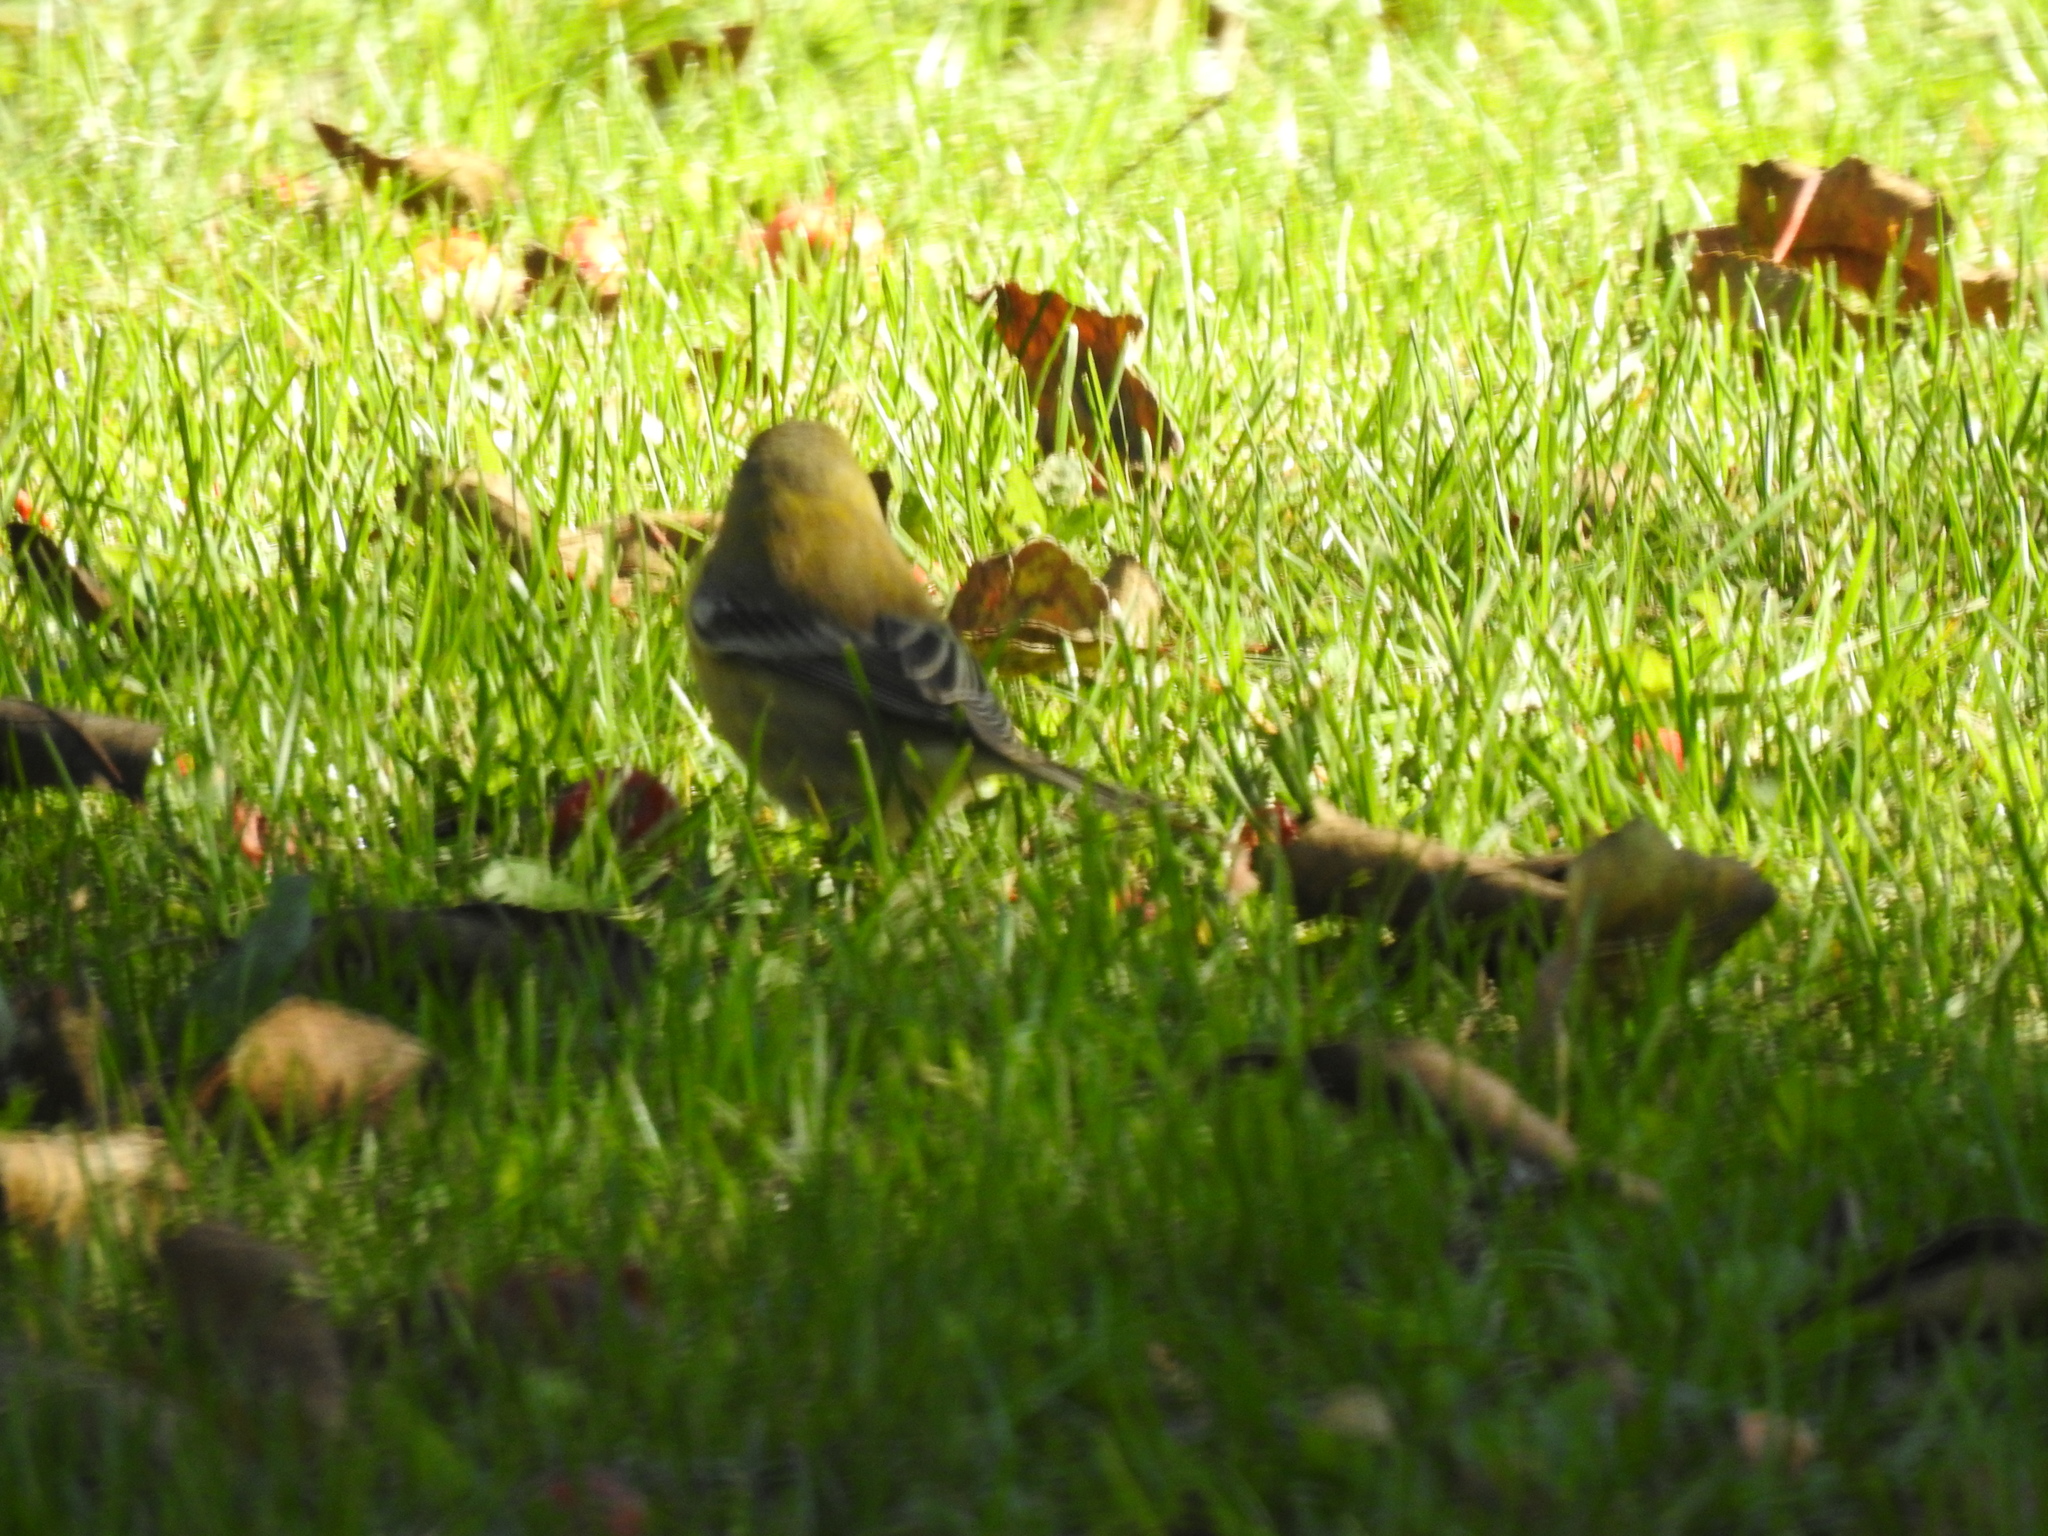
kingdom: Animalia
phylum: Chordata
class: Aves
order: Passeriformes
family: Parulidae
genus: Setophaga
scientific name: Setophaga pinus
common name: Pine warbler
